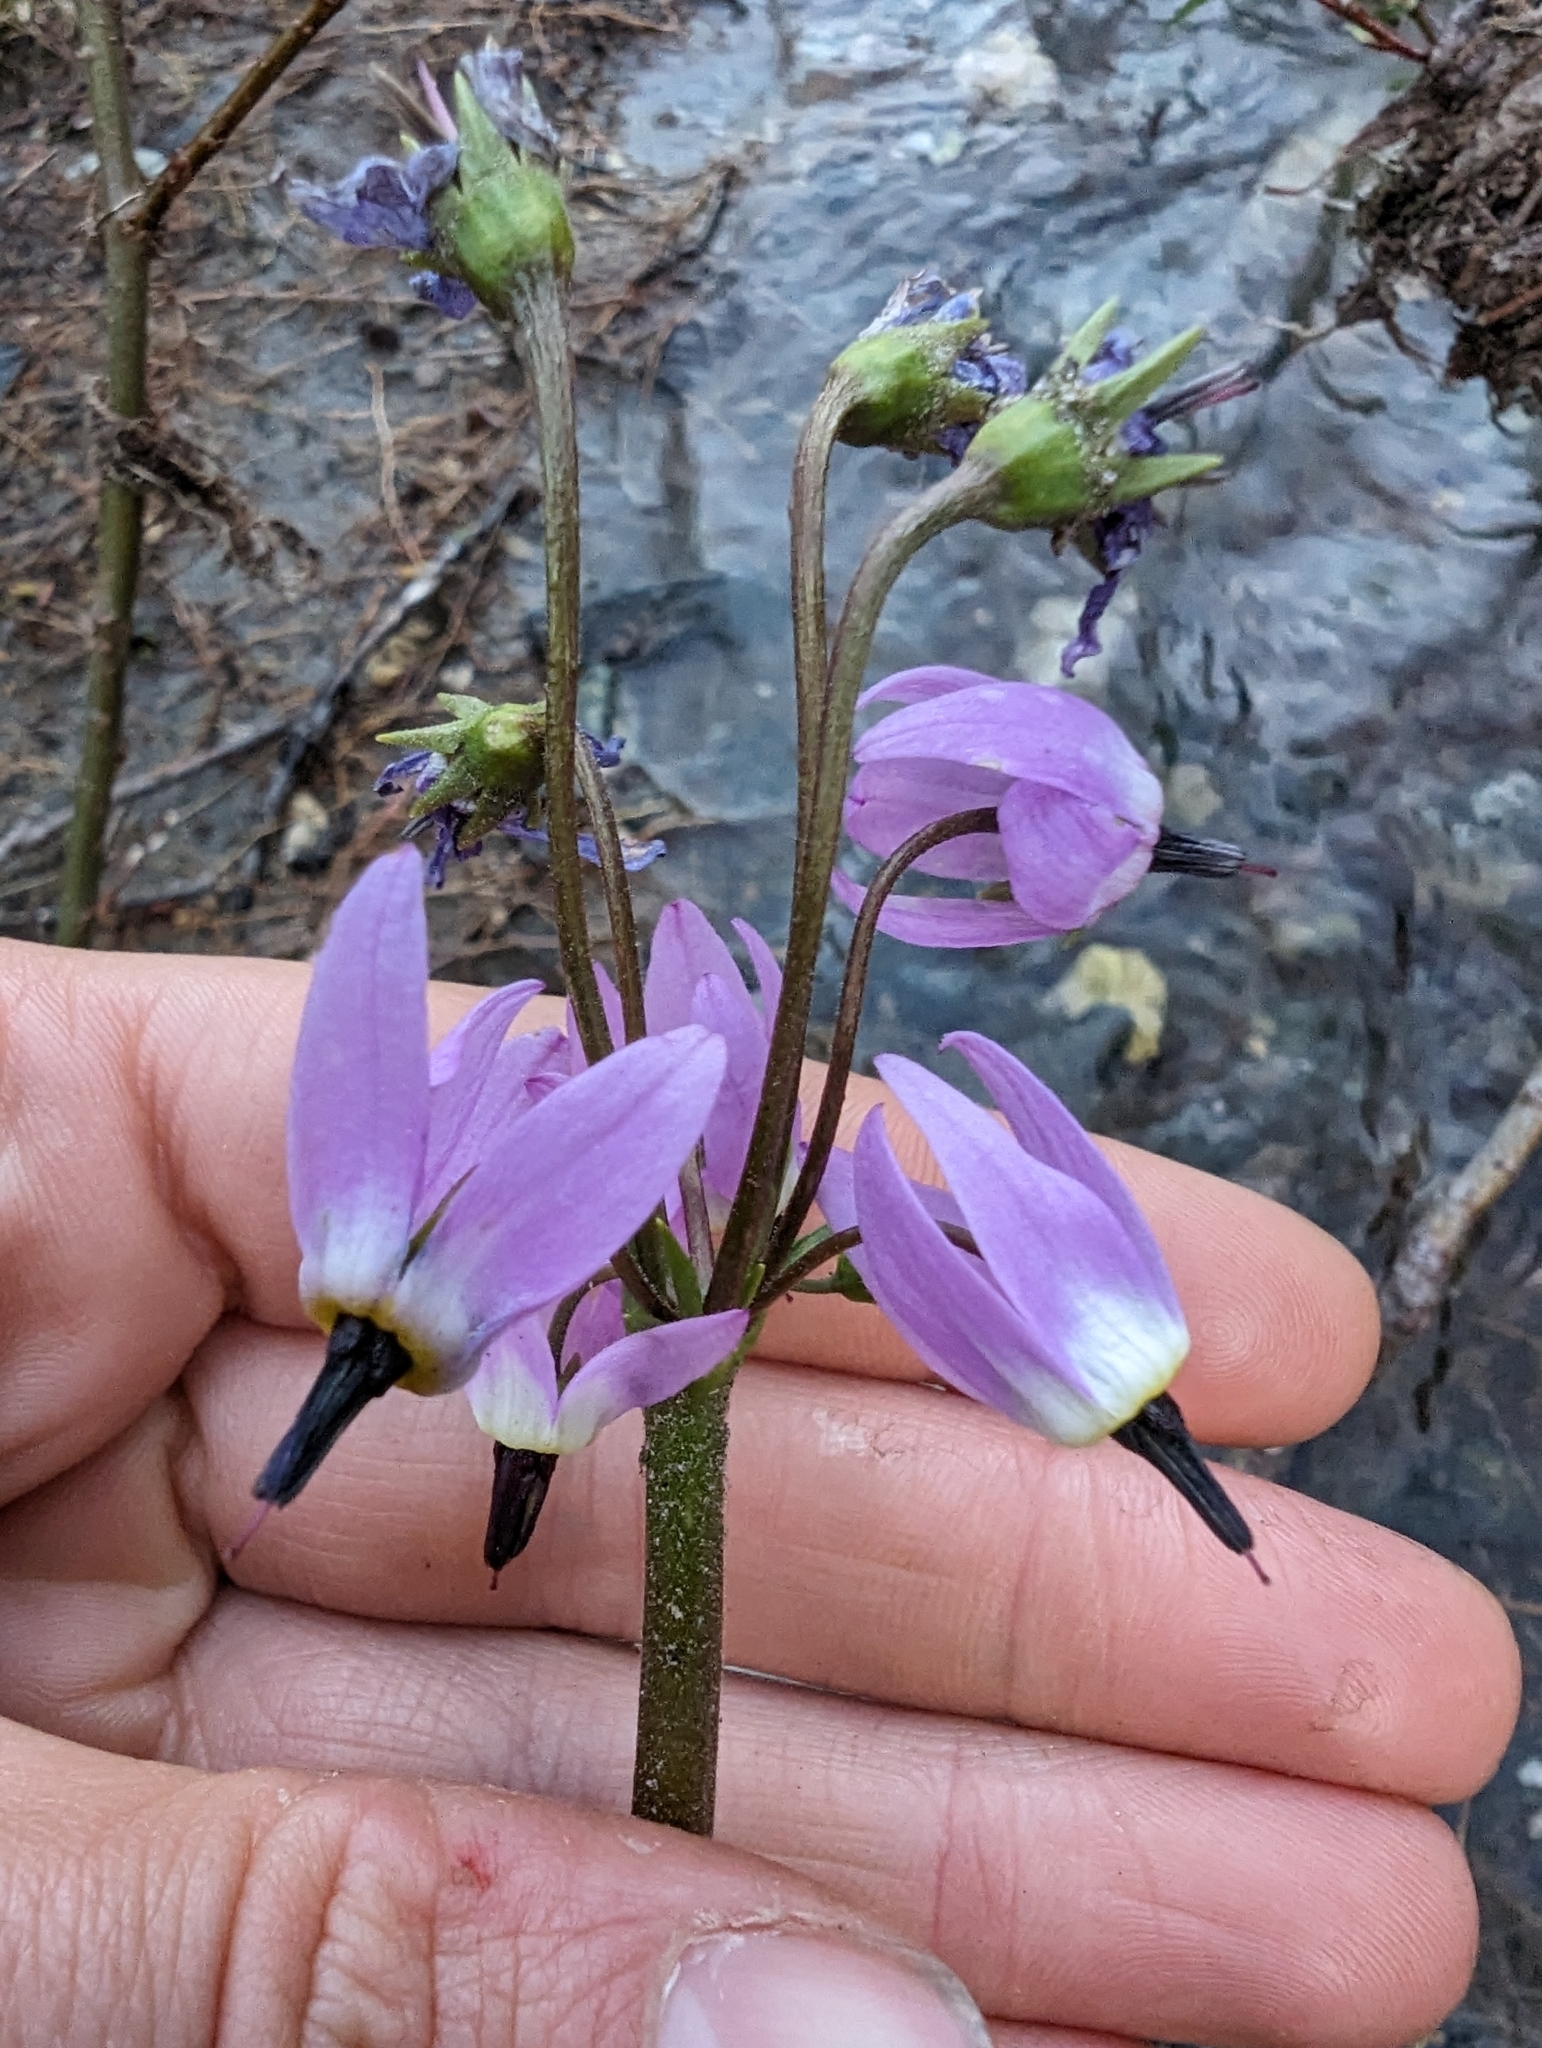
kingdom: Plantae
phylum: Tracheophyta
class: Magnoliopsida
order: Ericales
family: Primulaceae
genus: Dodecatheon
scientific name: Dodecatheon jeffreyanum
